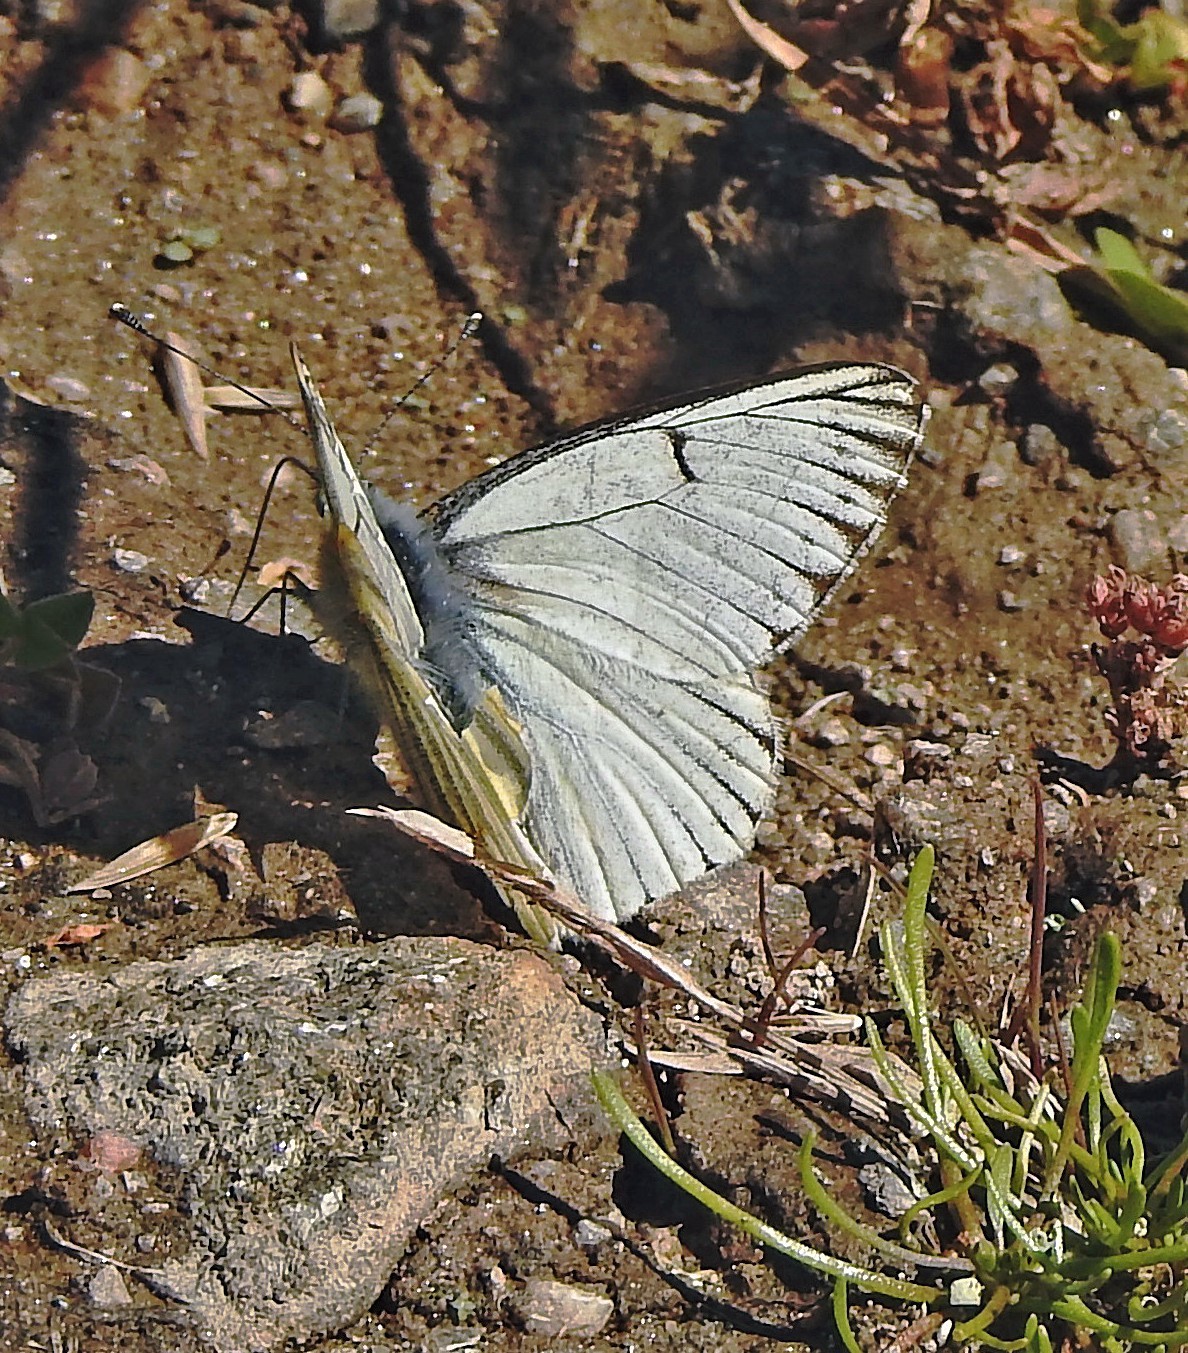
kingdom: Animalia
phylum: Arthropoda
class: Insecta
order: Lepidoptera
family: Pieridae
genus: Tatochila
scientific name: Tatochila stigmadice
